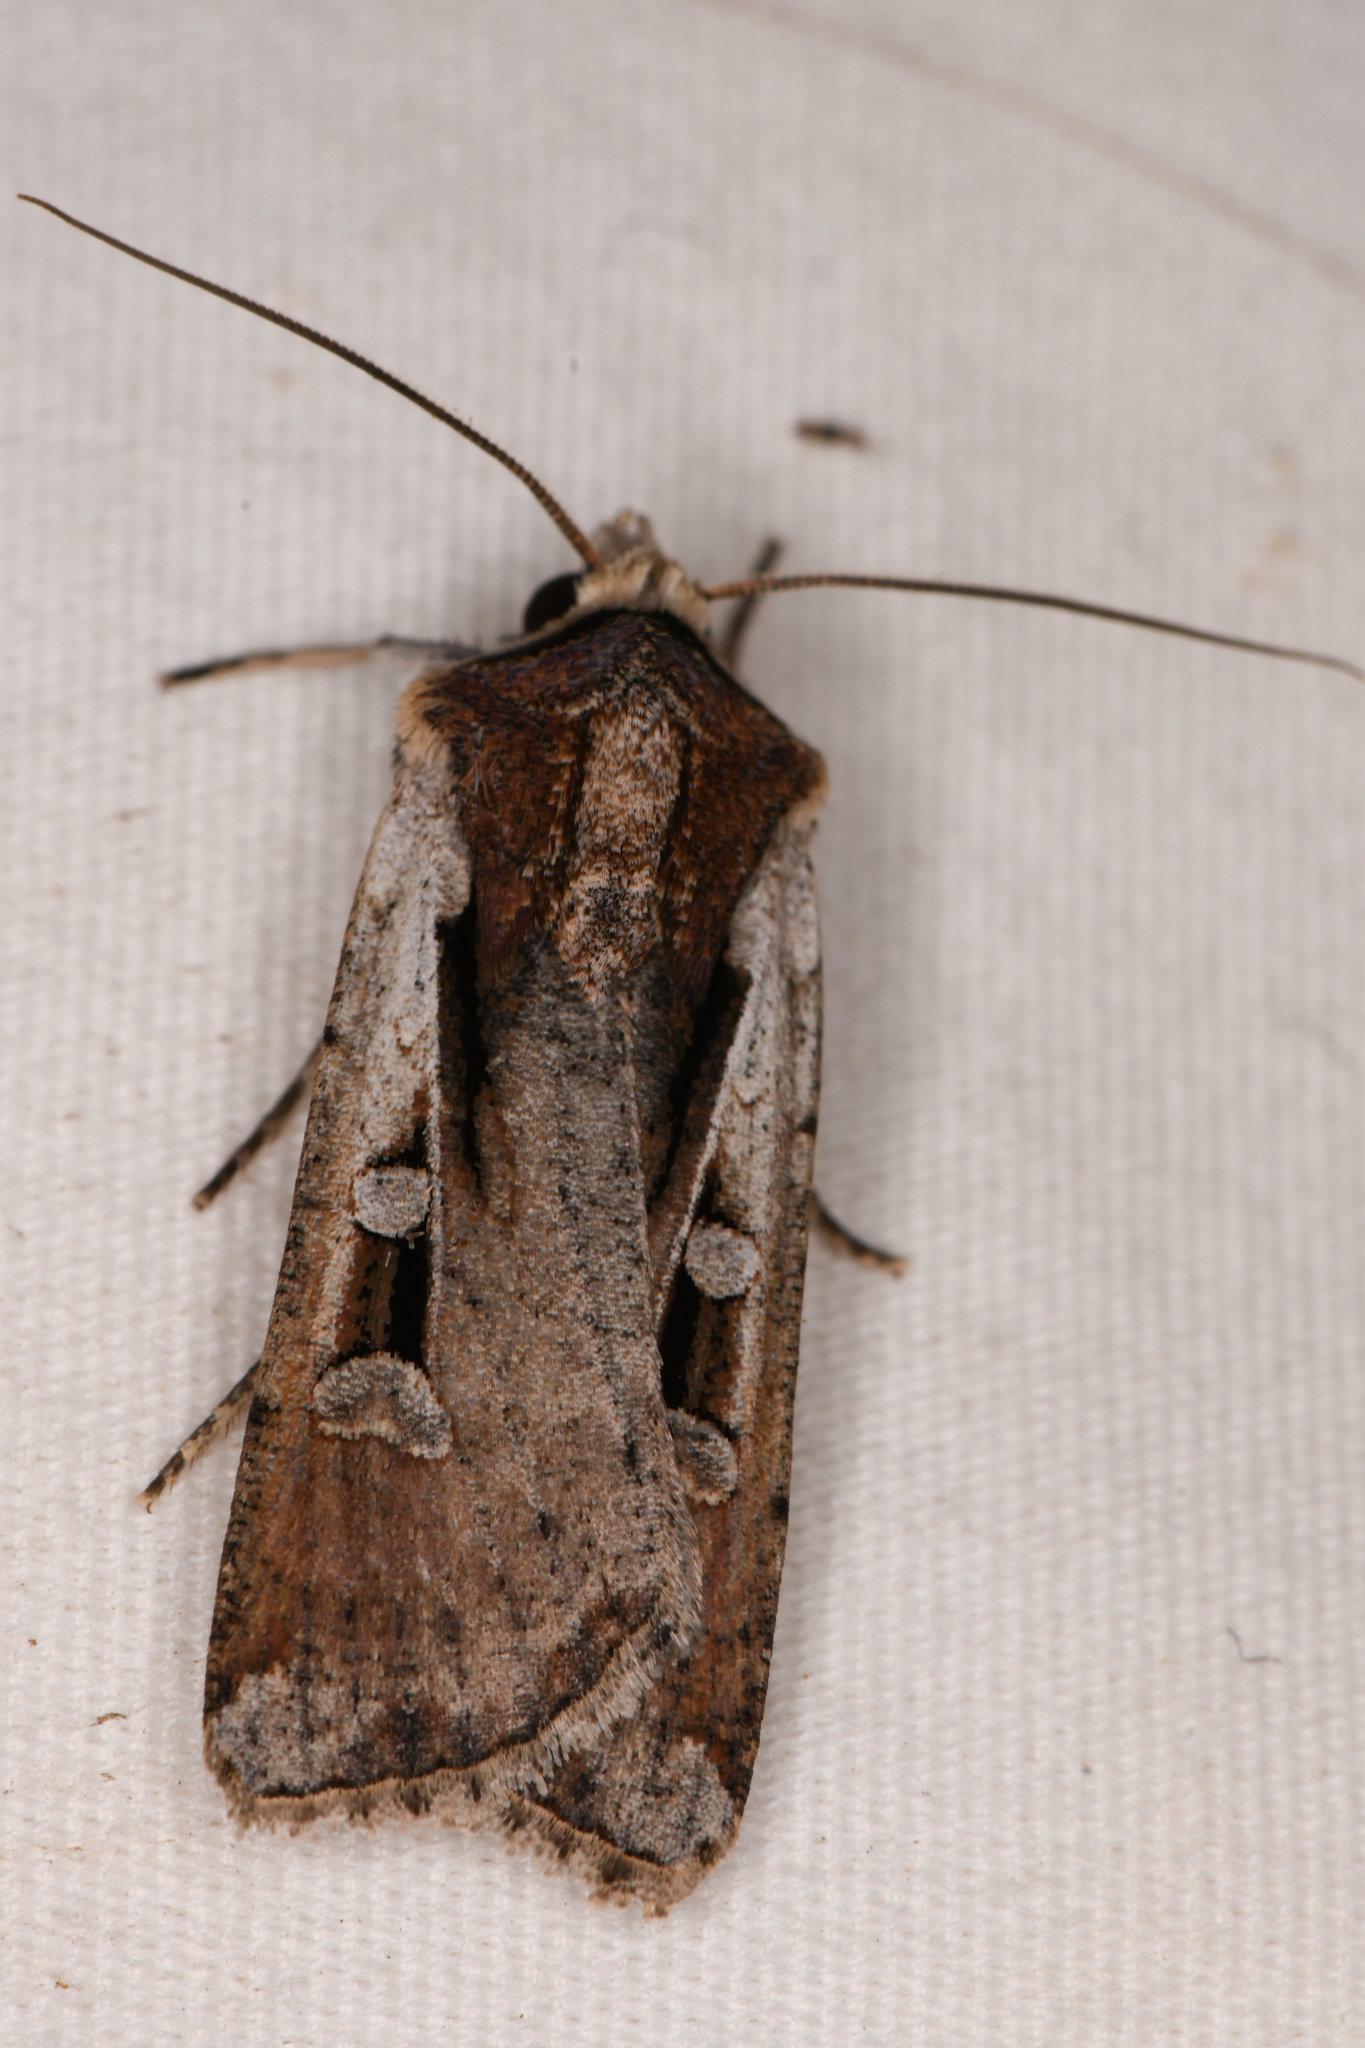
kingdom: Animalia
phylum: Arthropoda
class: Insecta
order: Lepidoptera
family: Noctuidae
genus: Hemieuxoa
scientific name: Hemieuxoa rudens
